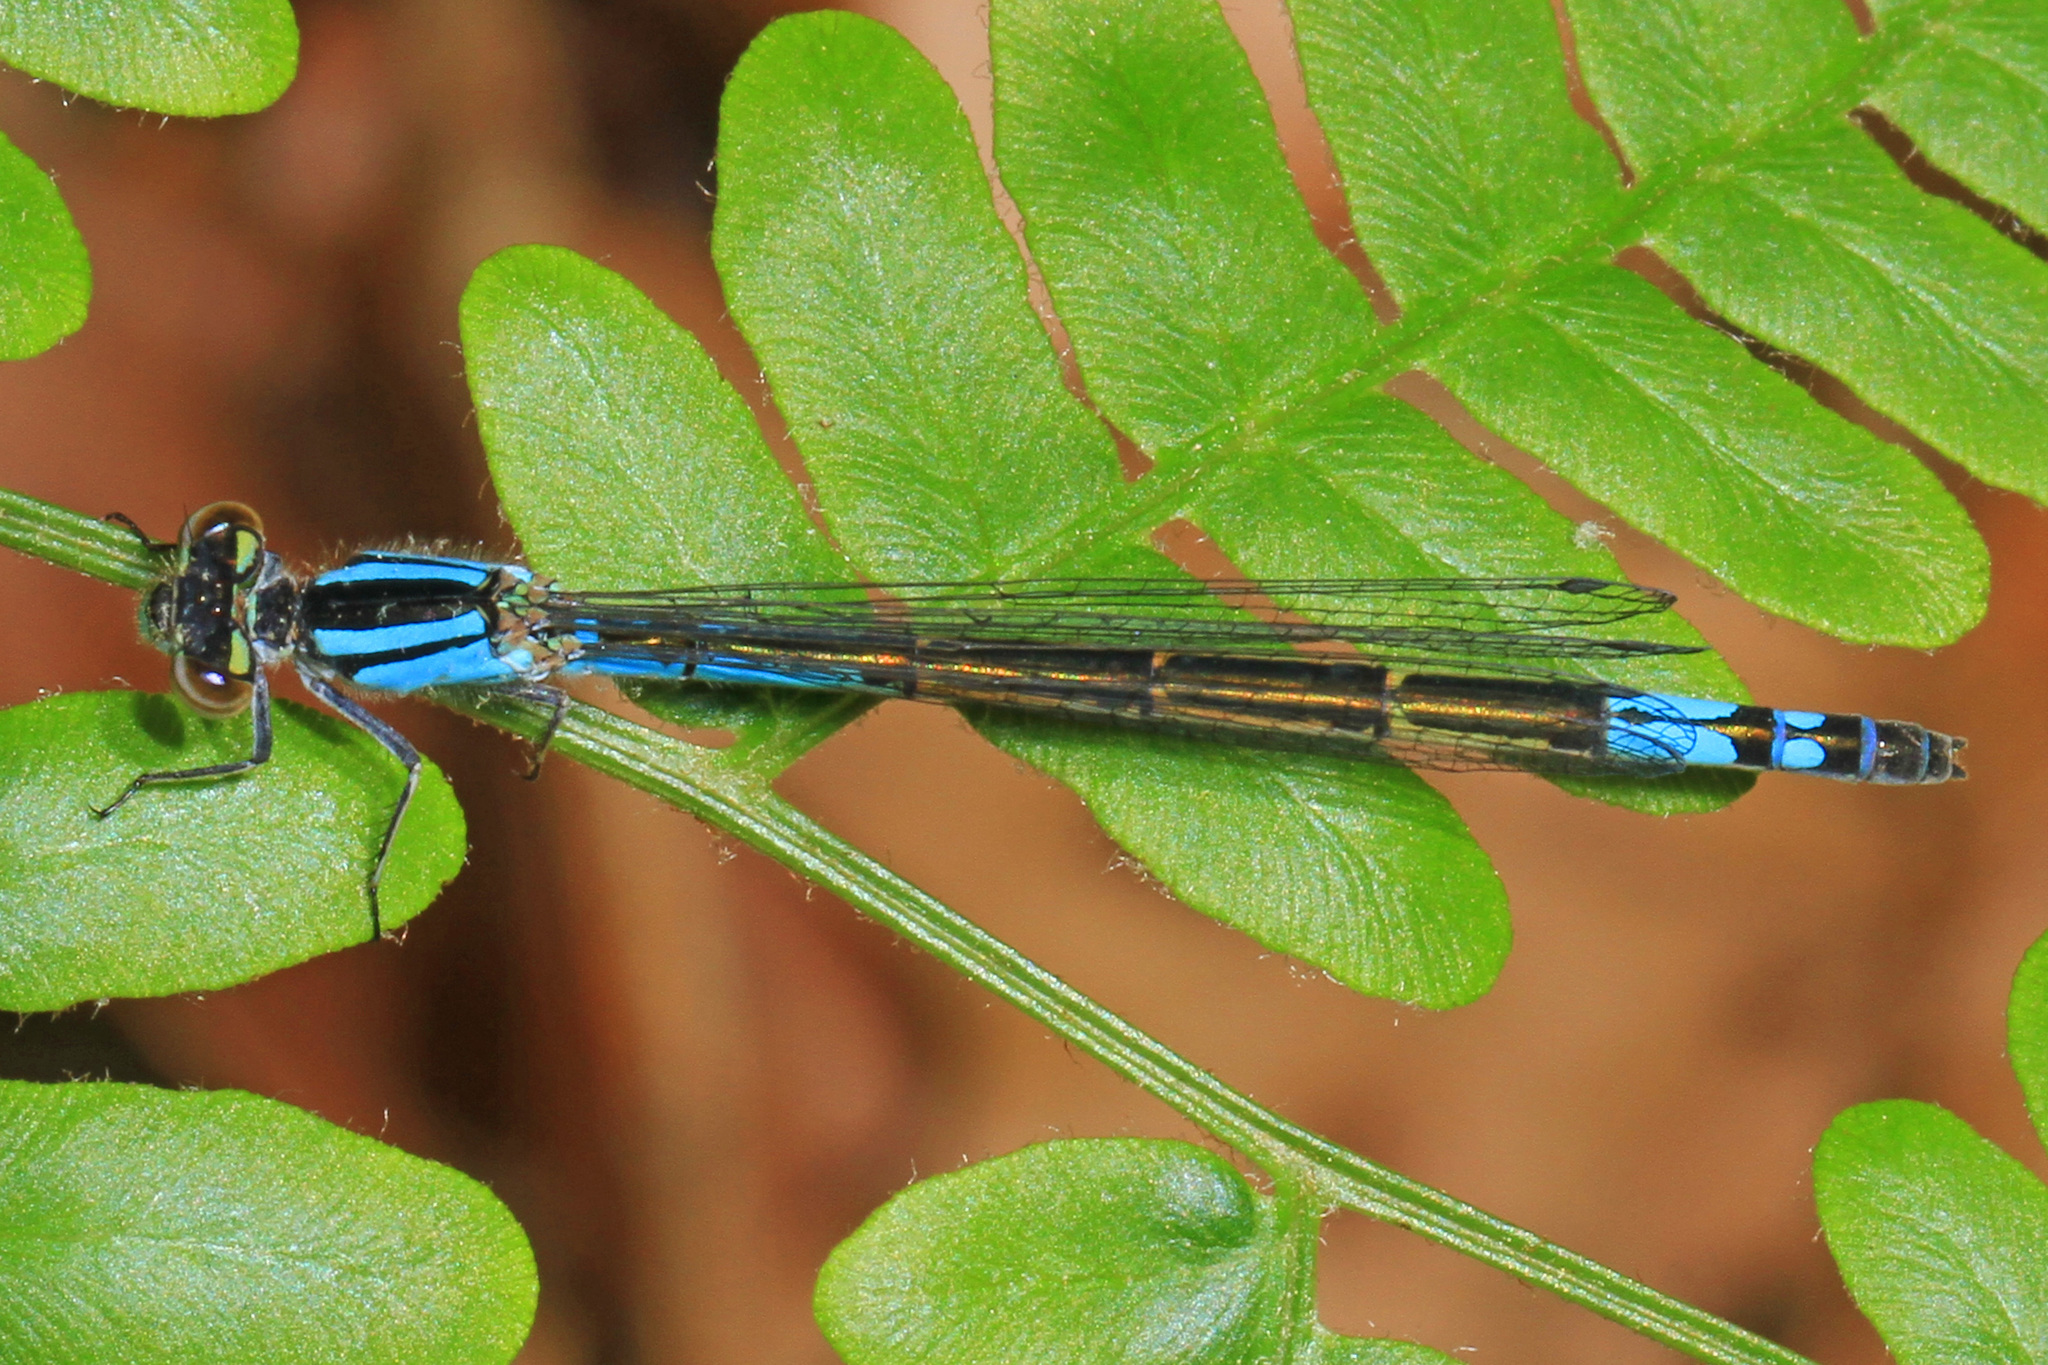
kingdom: Animalia
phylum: Arthropoda
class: Insecta
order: Odonata
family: Coenagrionidae
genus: Enallagma
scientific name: Enallagma aspersum
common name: Azure bluet
